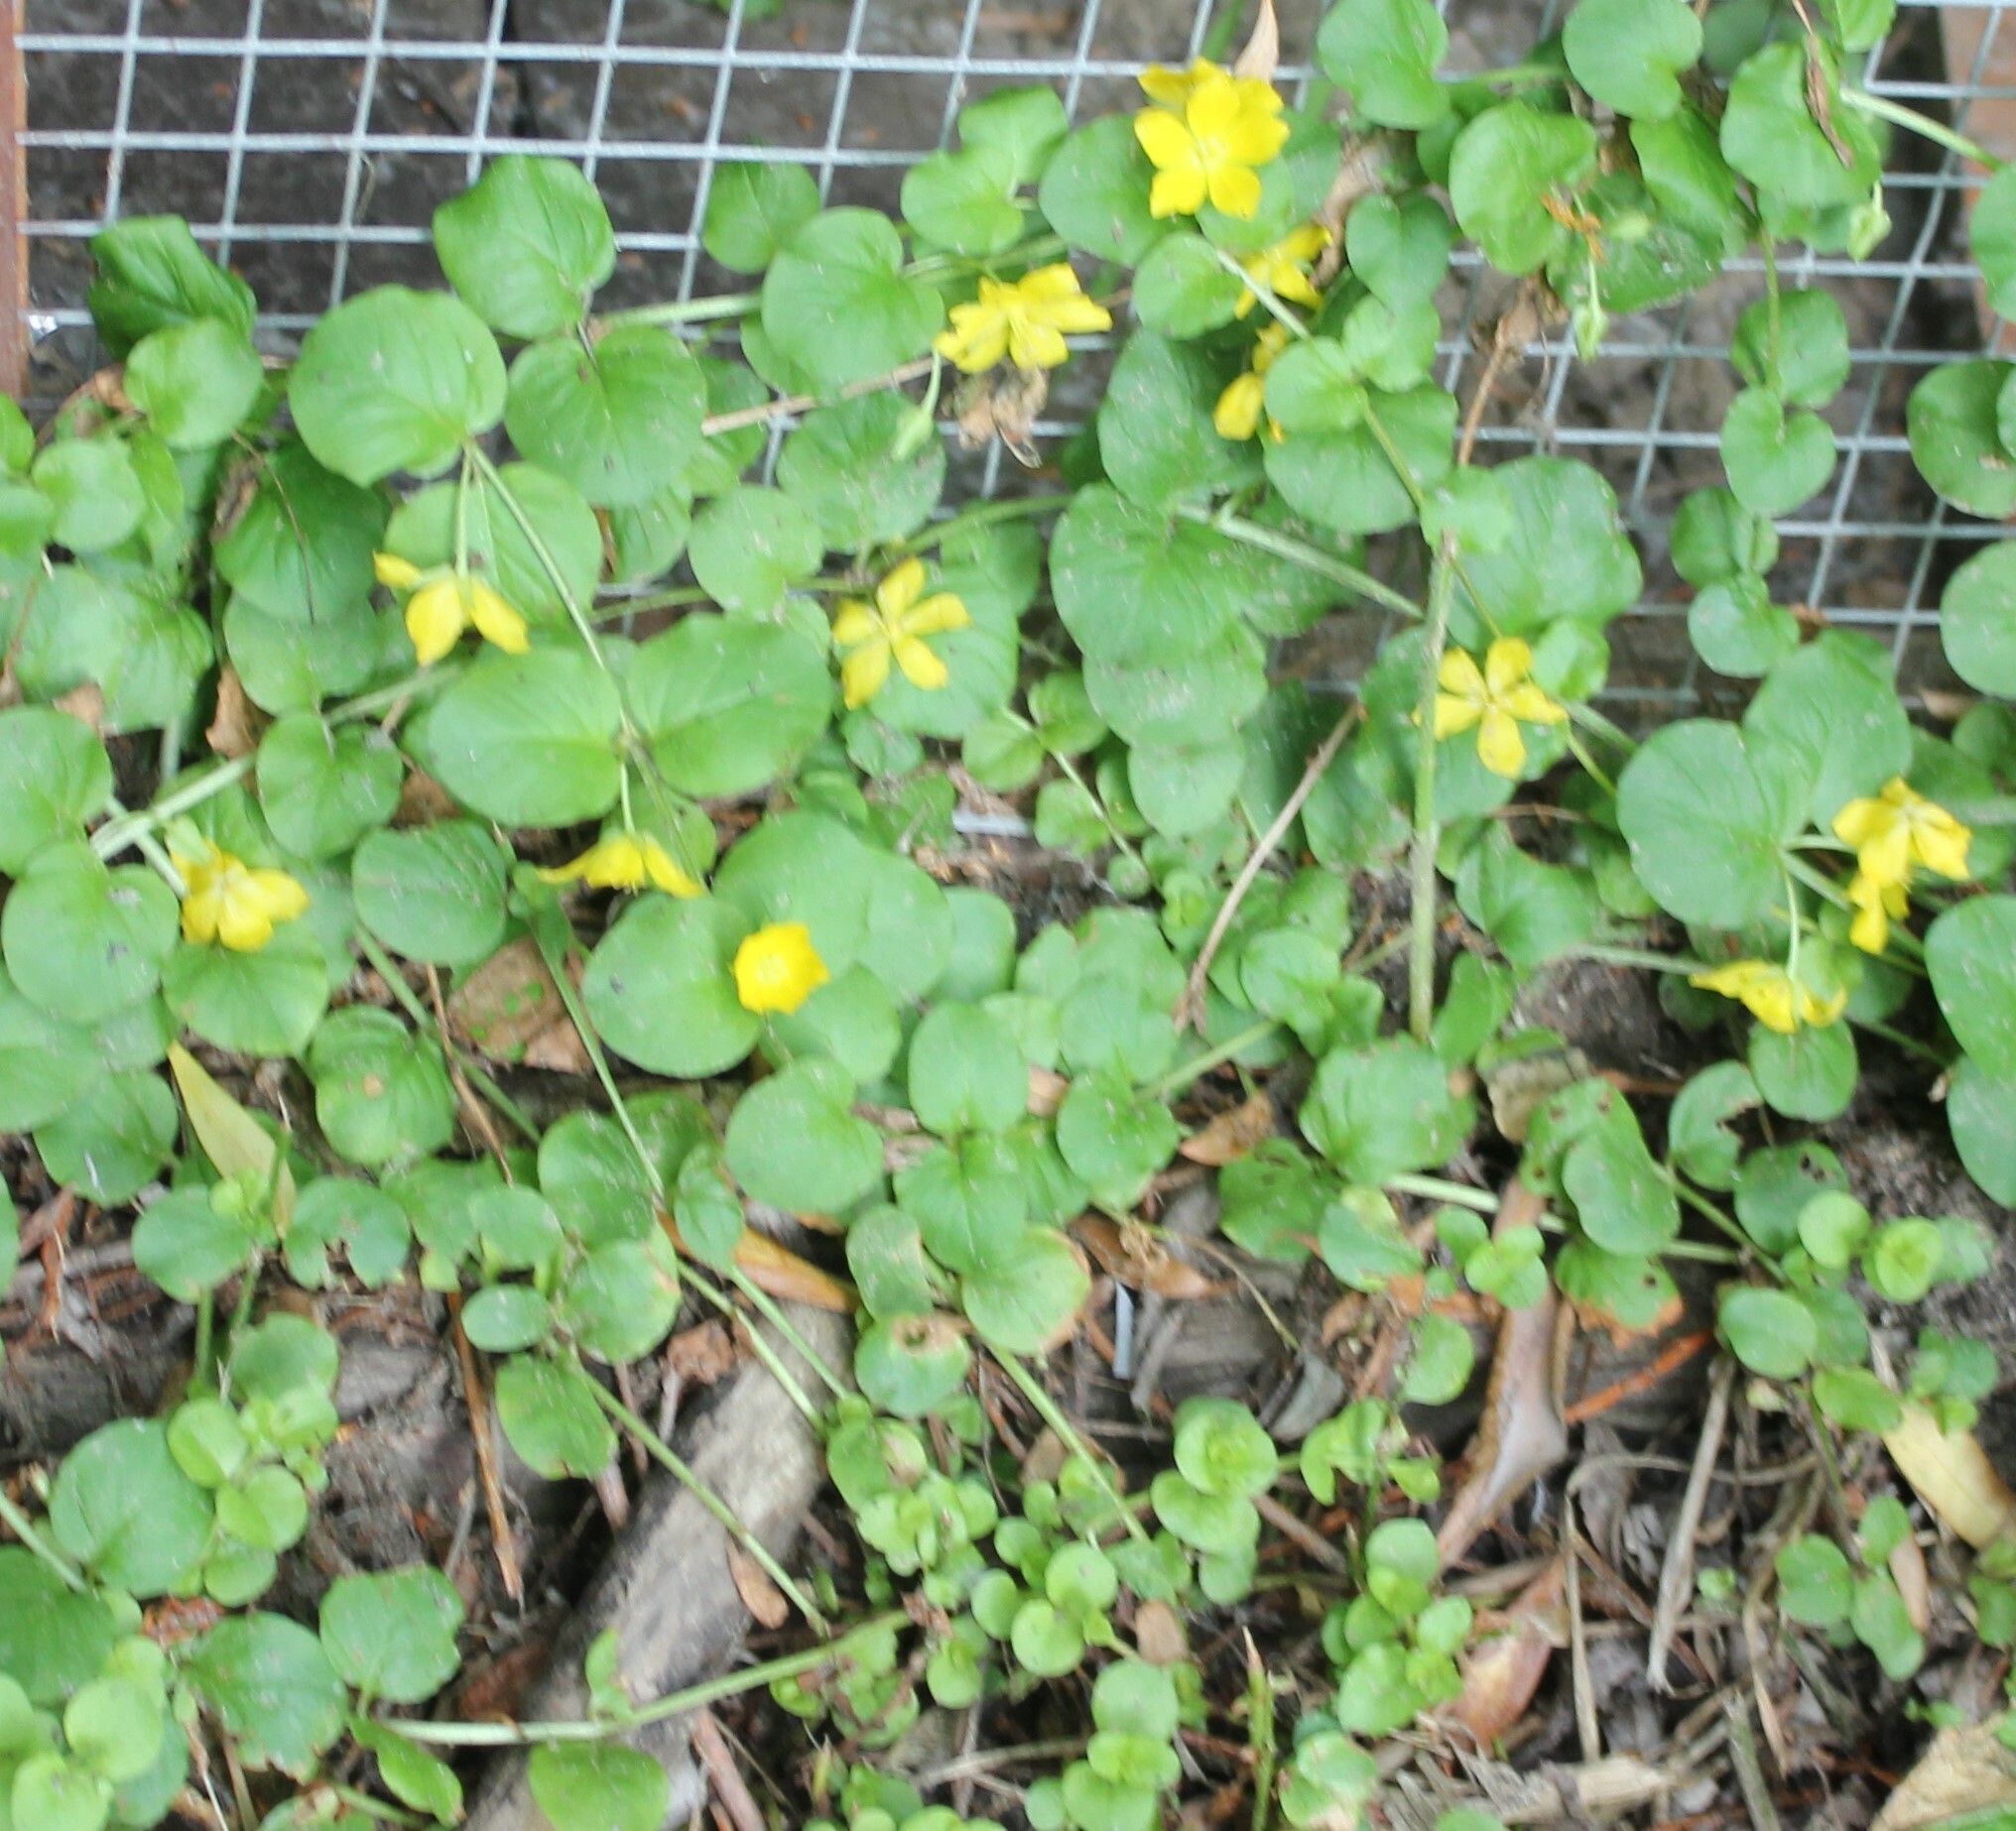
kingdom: Plantae
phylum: Tracheophyta
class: Magnoliopsida
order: Ericales
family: Primulaceae
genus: Lysimachia
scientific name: Lysimachia nummularia
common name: Moneywort
